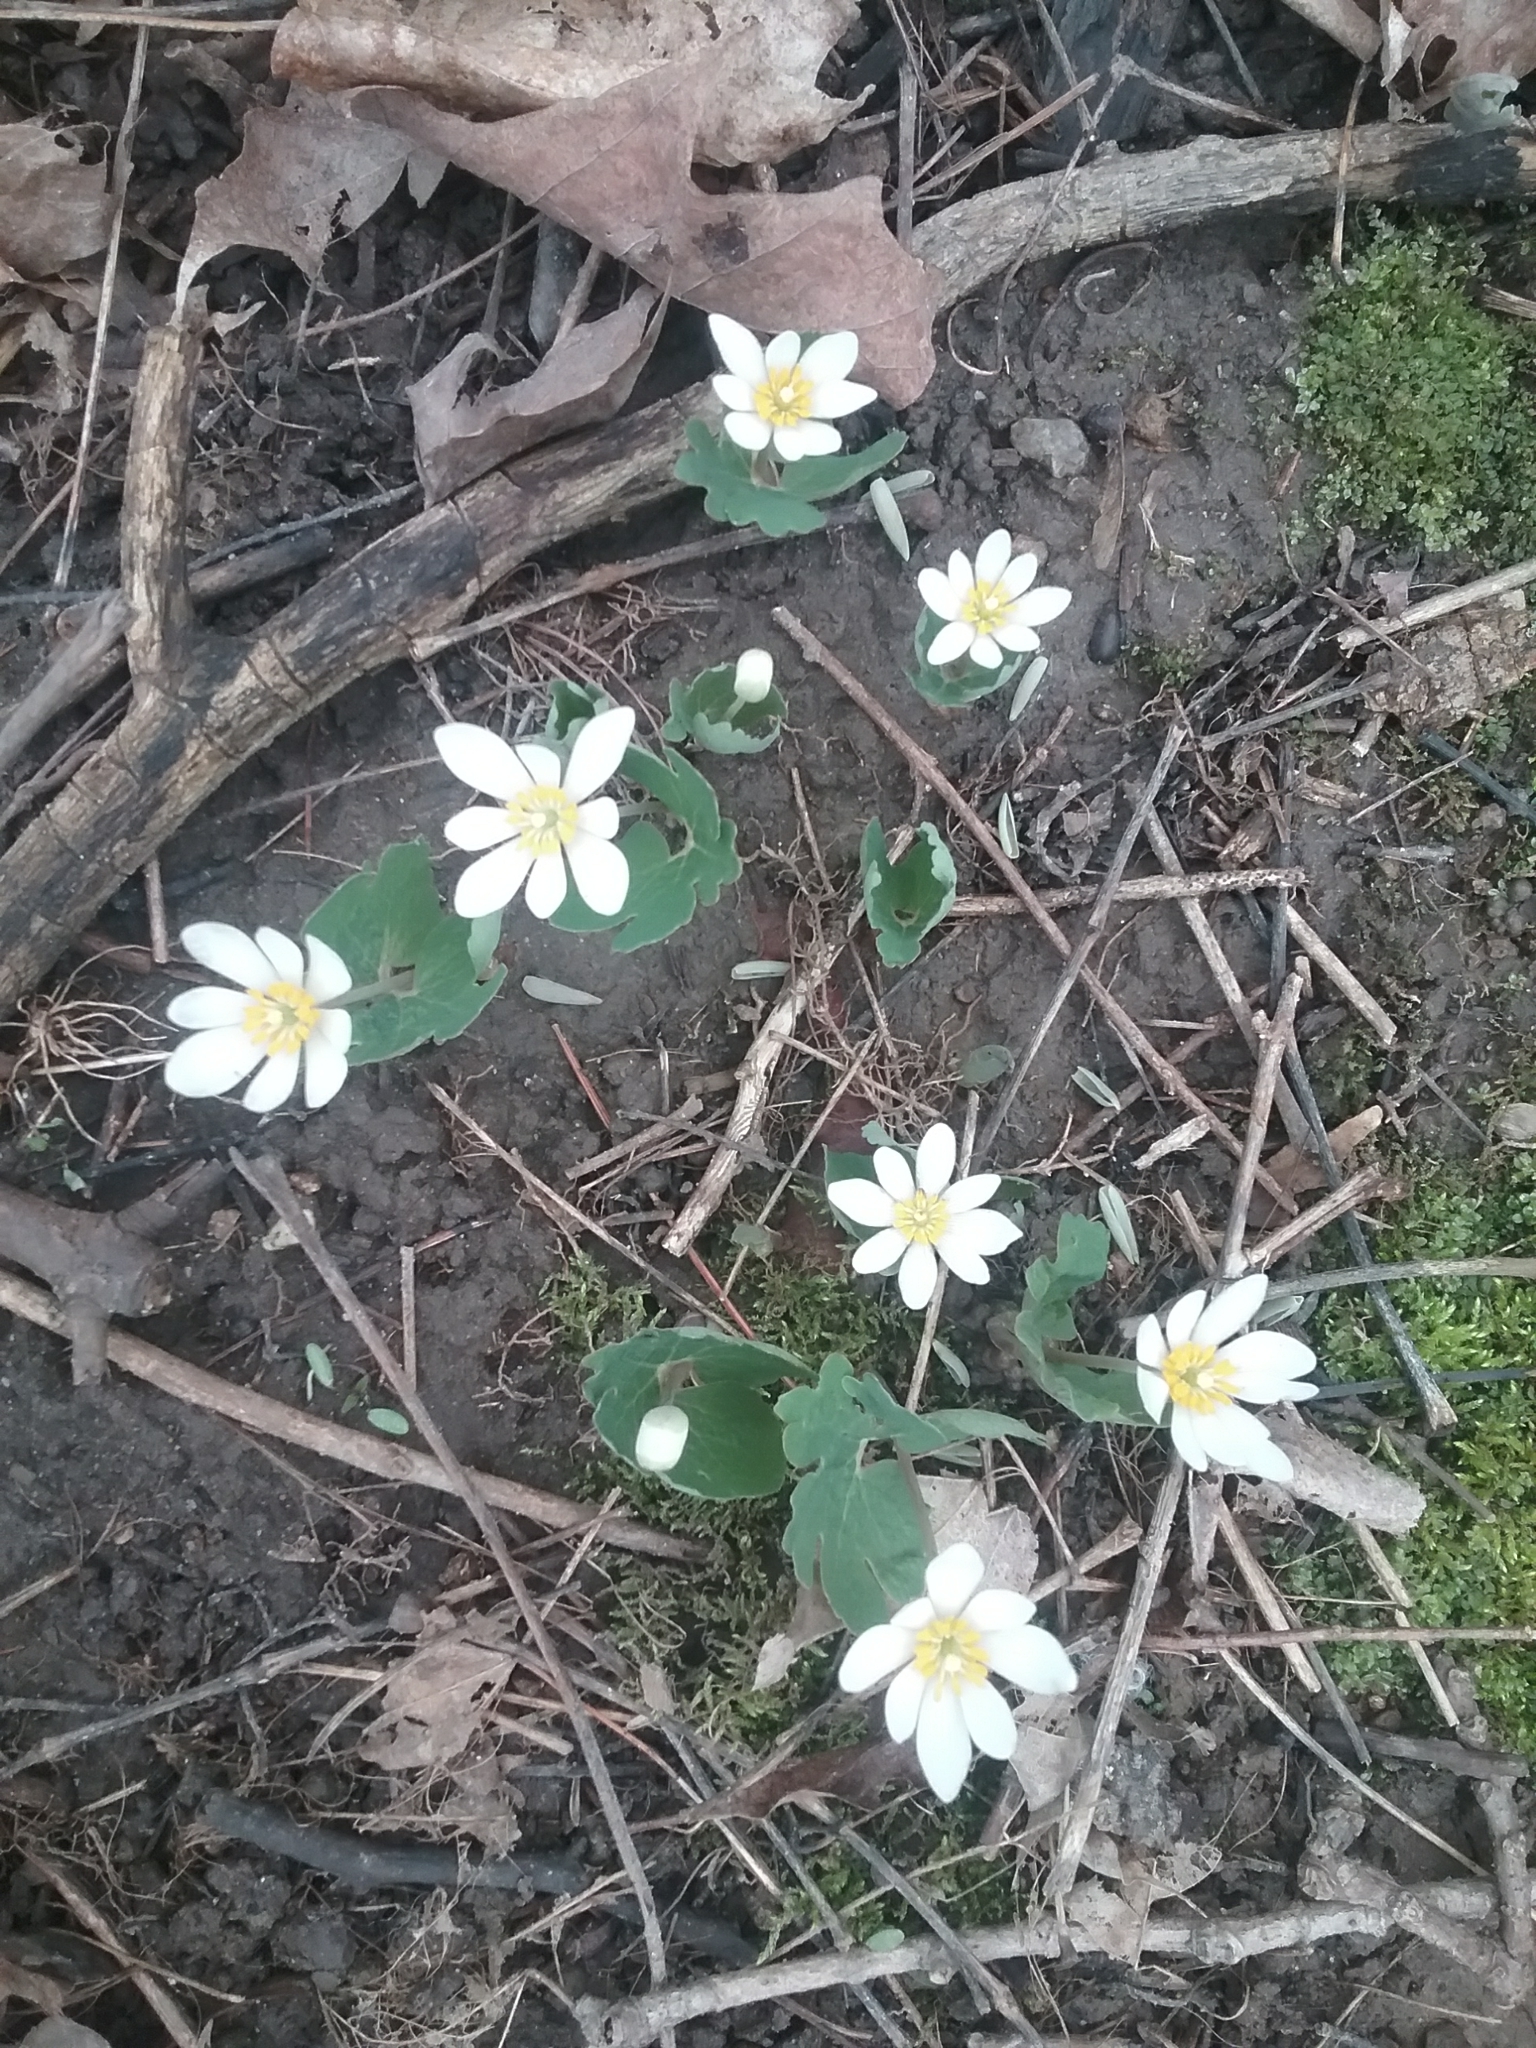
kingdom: Plantae
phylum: Tracheophyta
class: Magnoliopsida
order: Ranunculales
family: Papaveraceae
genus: Sanguinaria
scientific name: Sanguinaria canadensis
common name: Bloodroot
